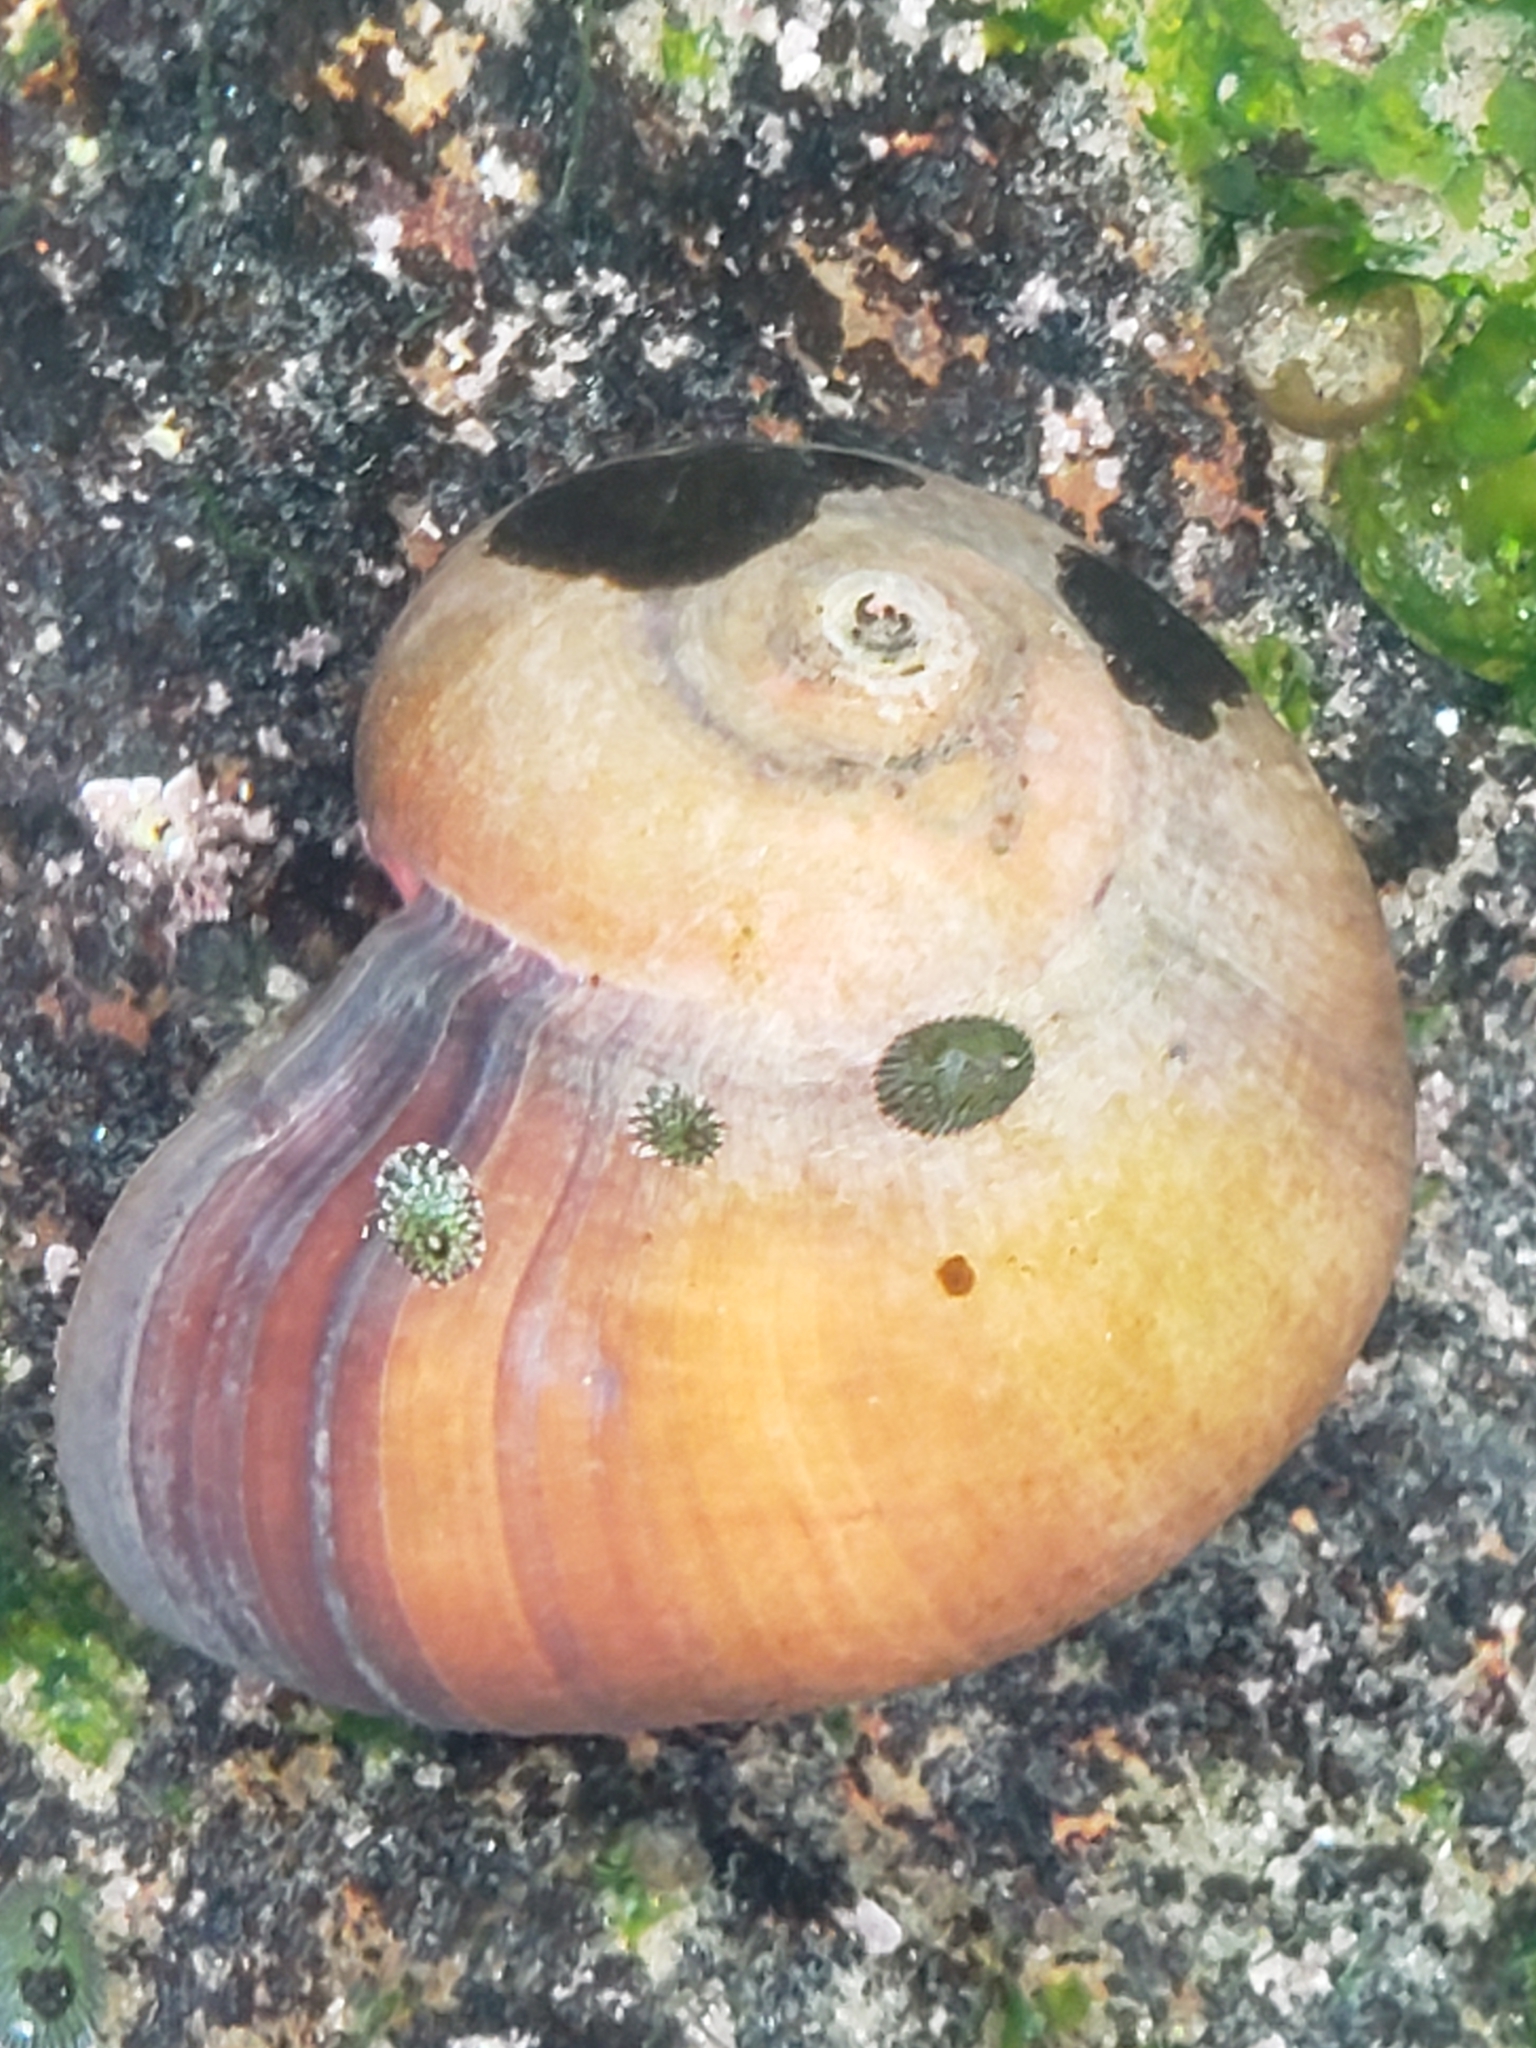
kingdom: Animalia
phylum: Mollusca
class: Gastropoda
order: Trochida
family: Tegulidae
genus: Norrisia
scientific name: Norrisia norrisii
